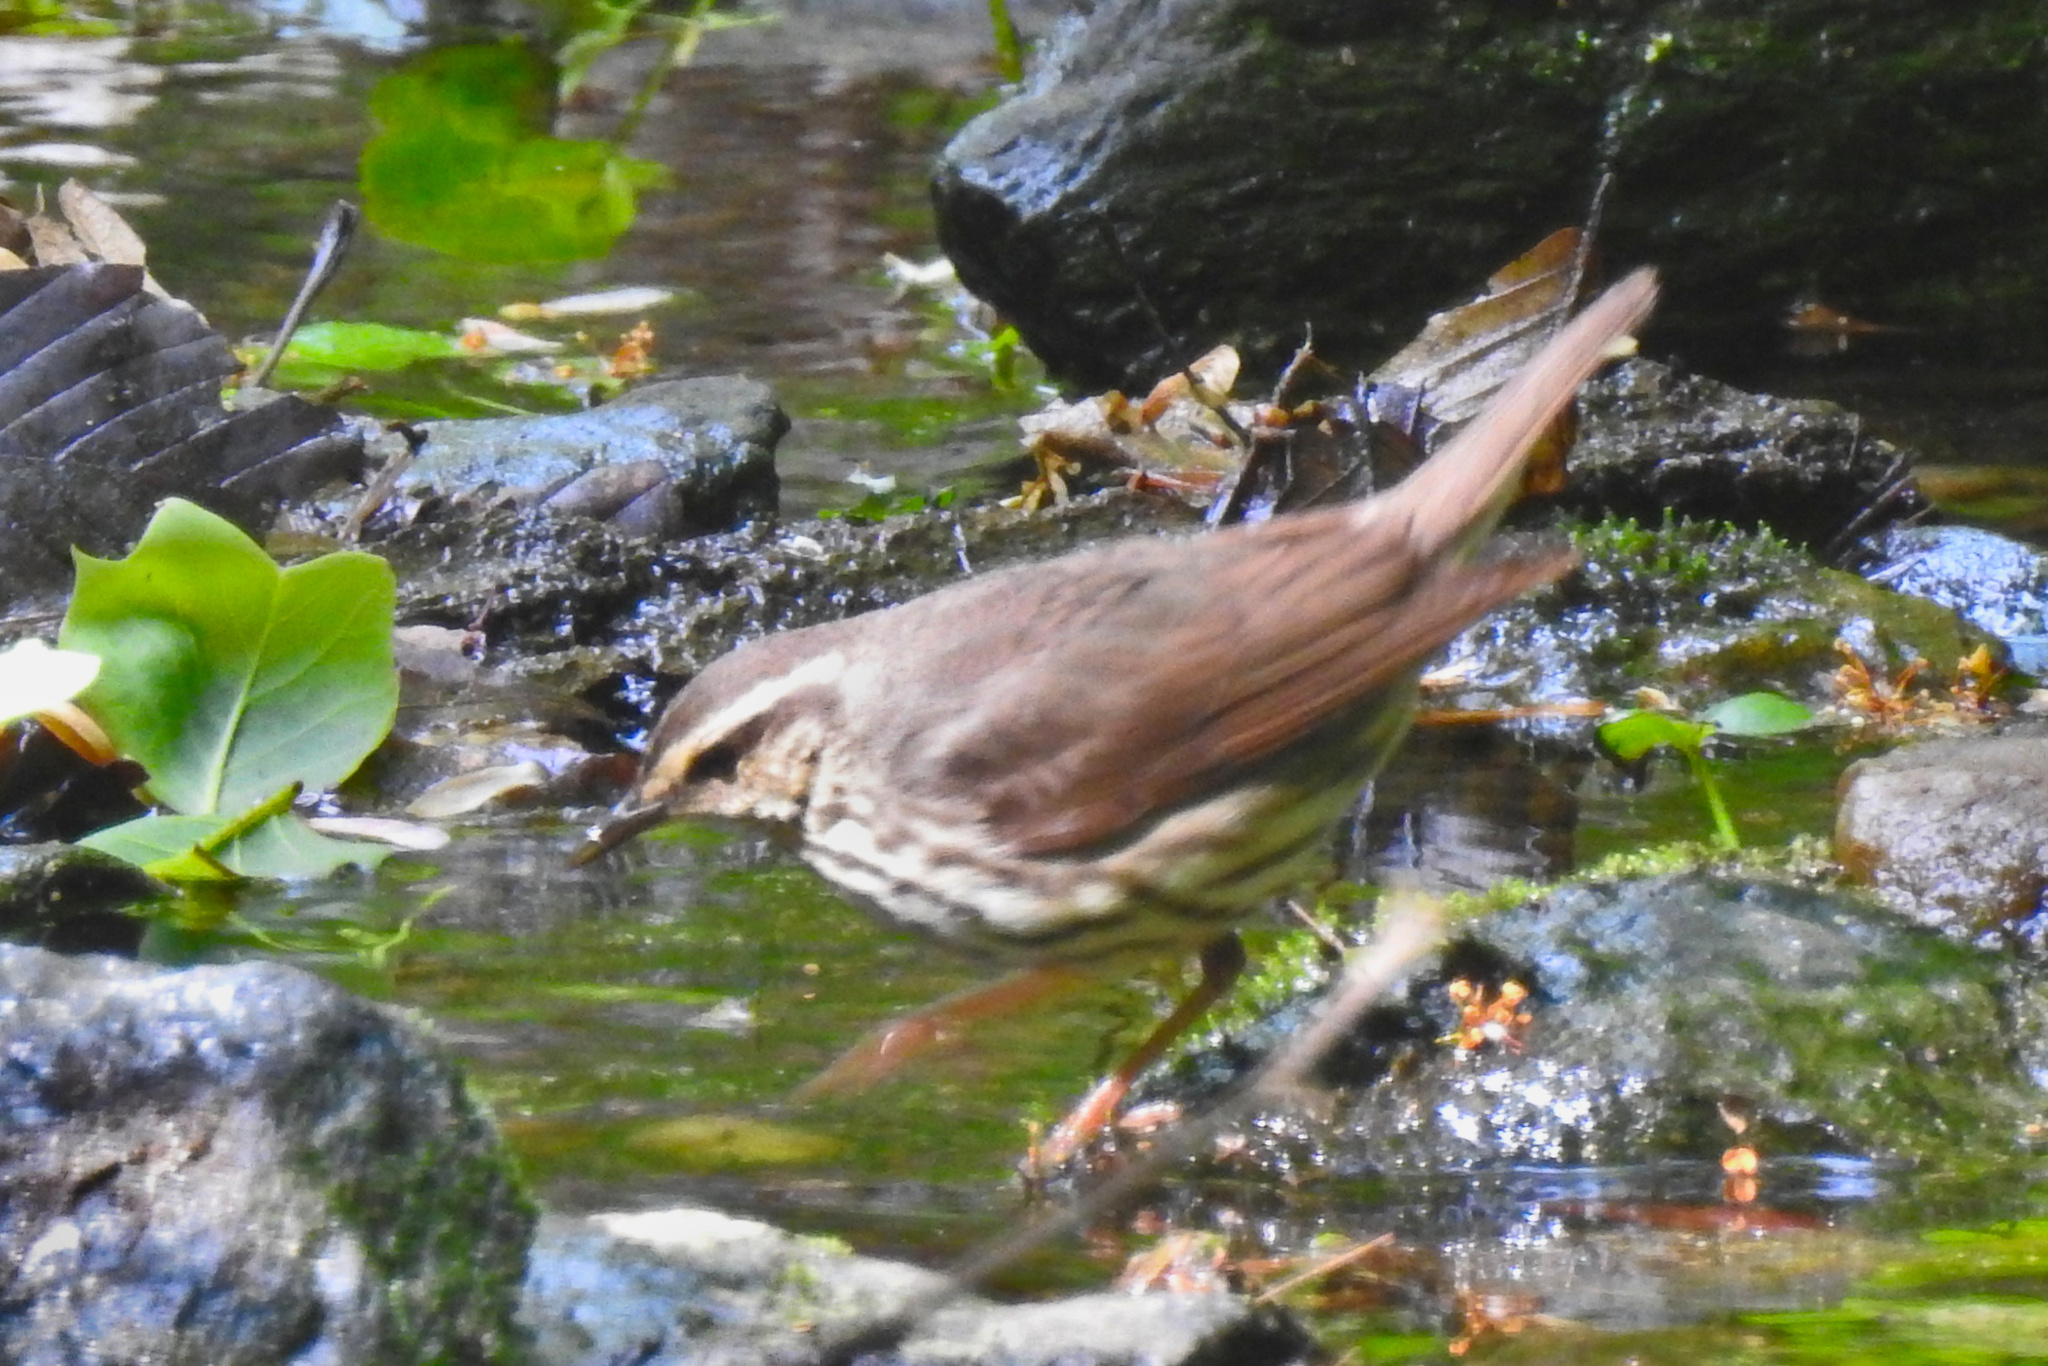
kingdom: Animalia
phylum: Chordata
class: Aves
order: Passeriformes
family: Parulidae
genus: Parkesia
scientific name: Parkesia noveboracensis
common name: Northern waterthrush
